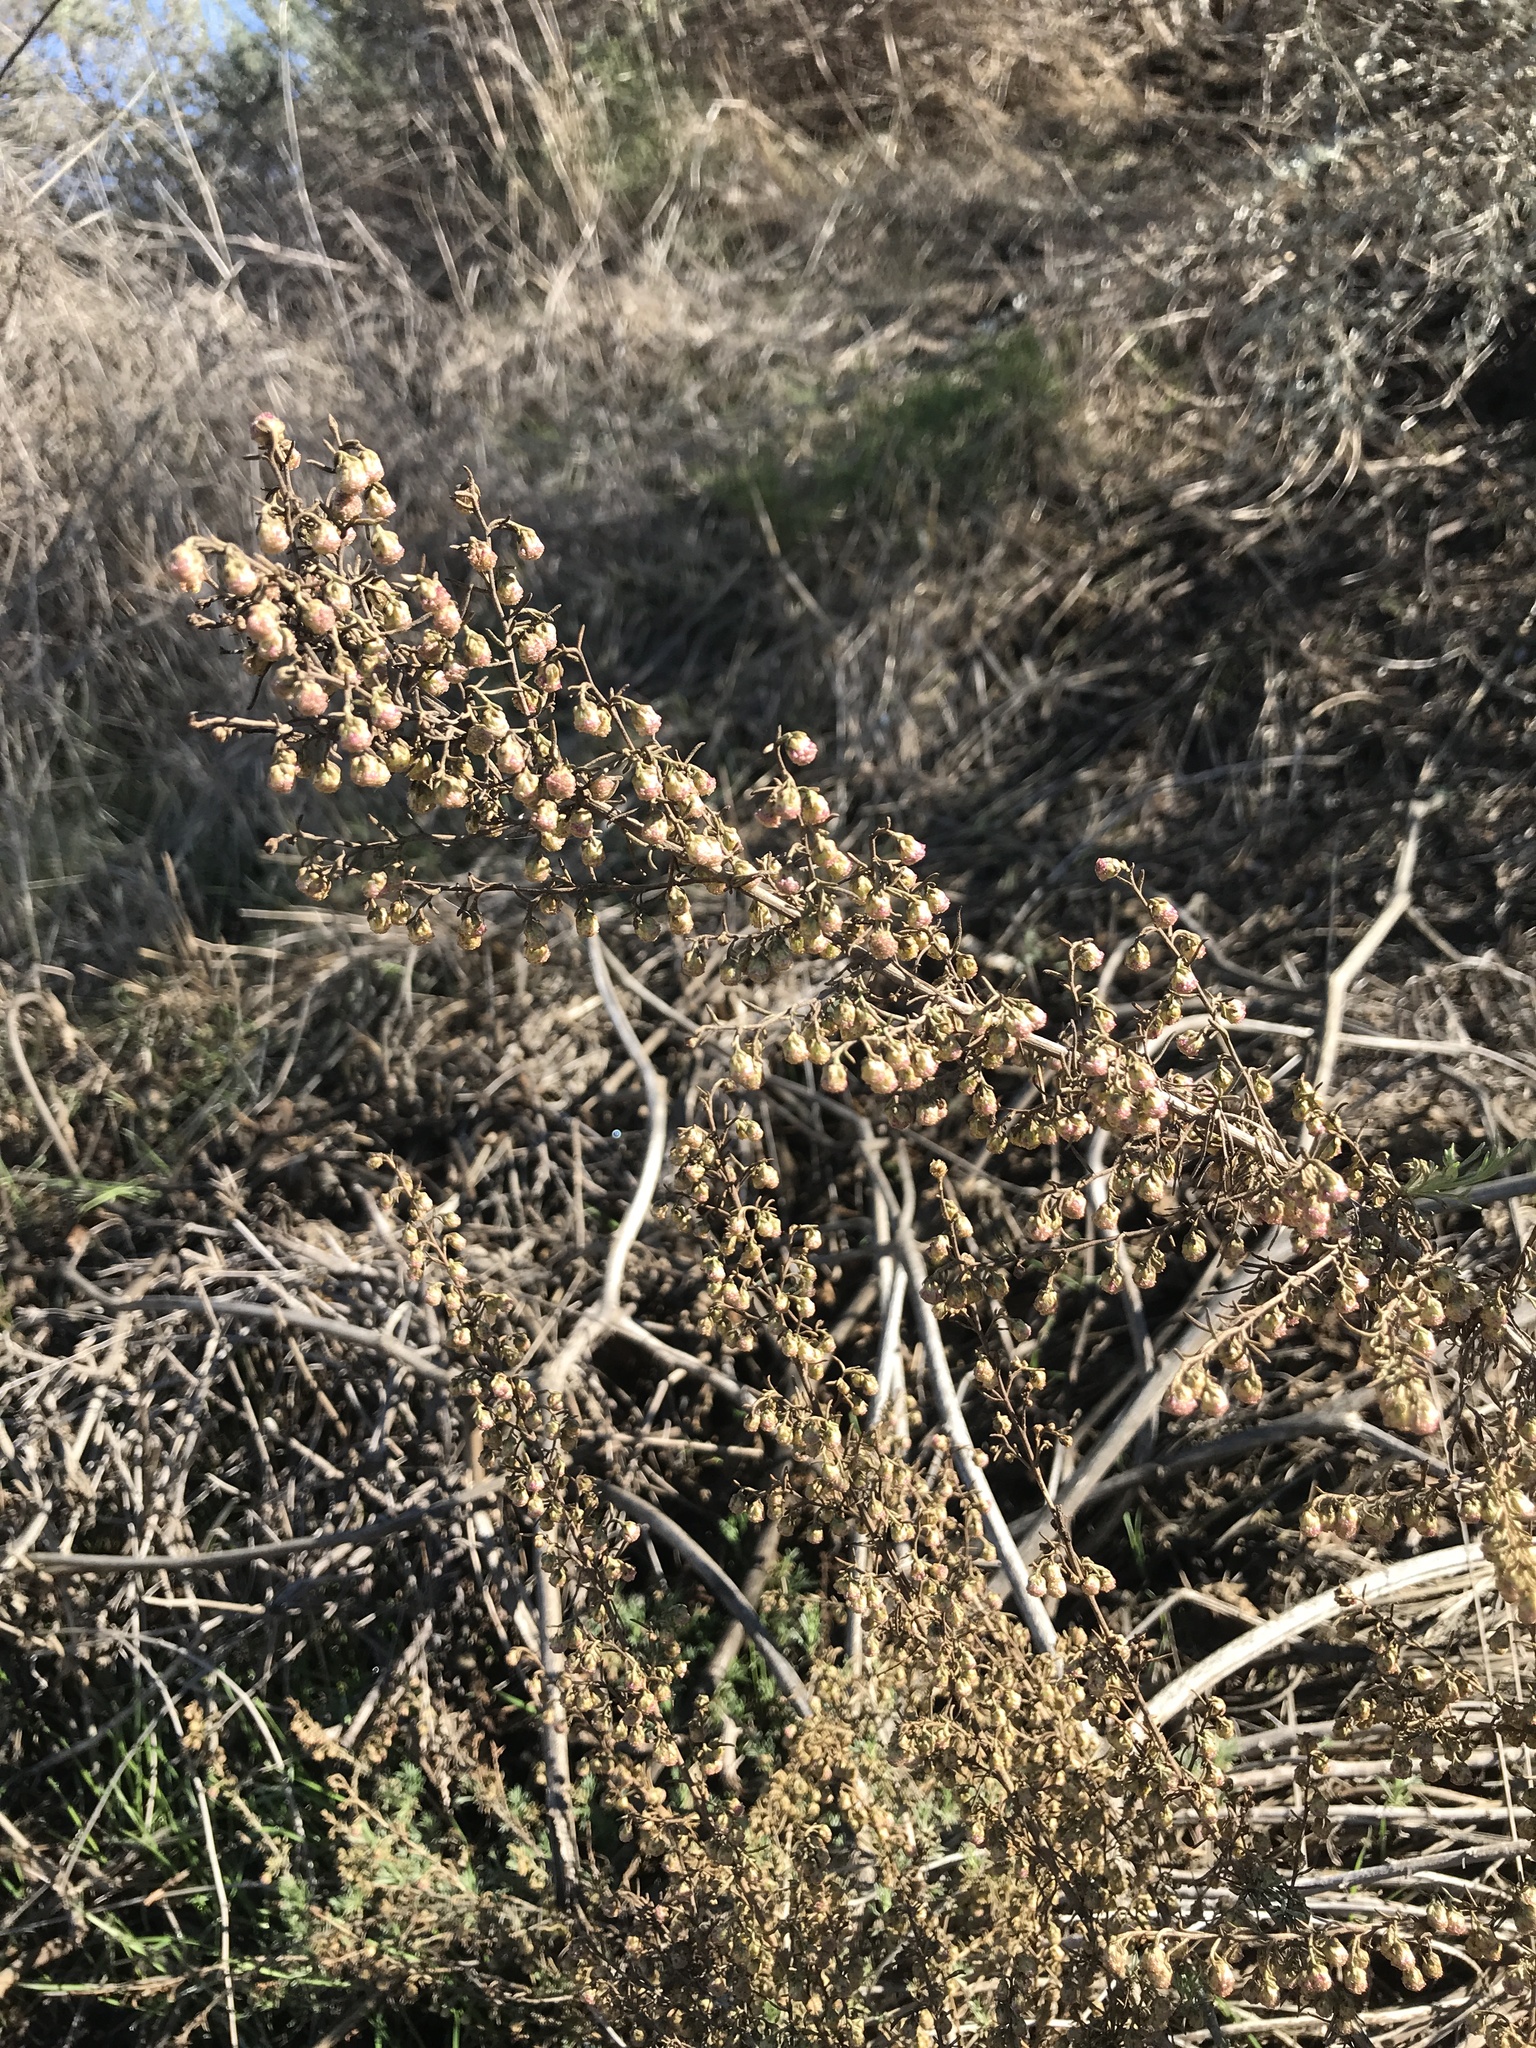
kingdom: Plantae
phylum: Tracheophyta
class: Magnoliopsida
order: Asterales
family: Asteraceae
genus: Artemisia
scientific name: Artemisia californica
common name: California sagebrush
